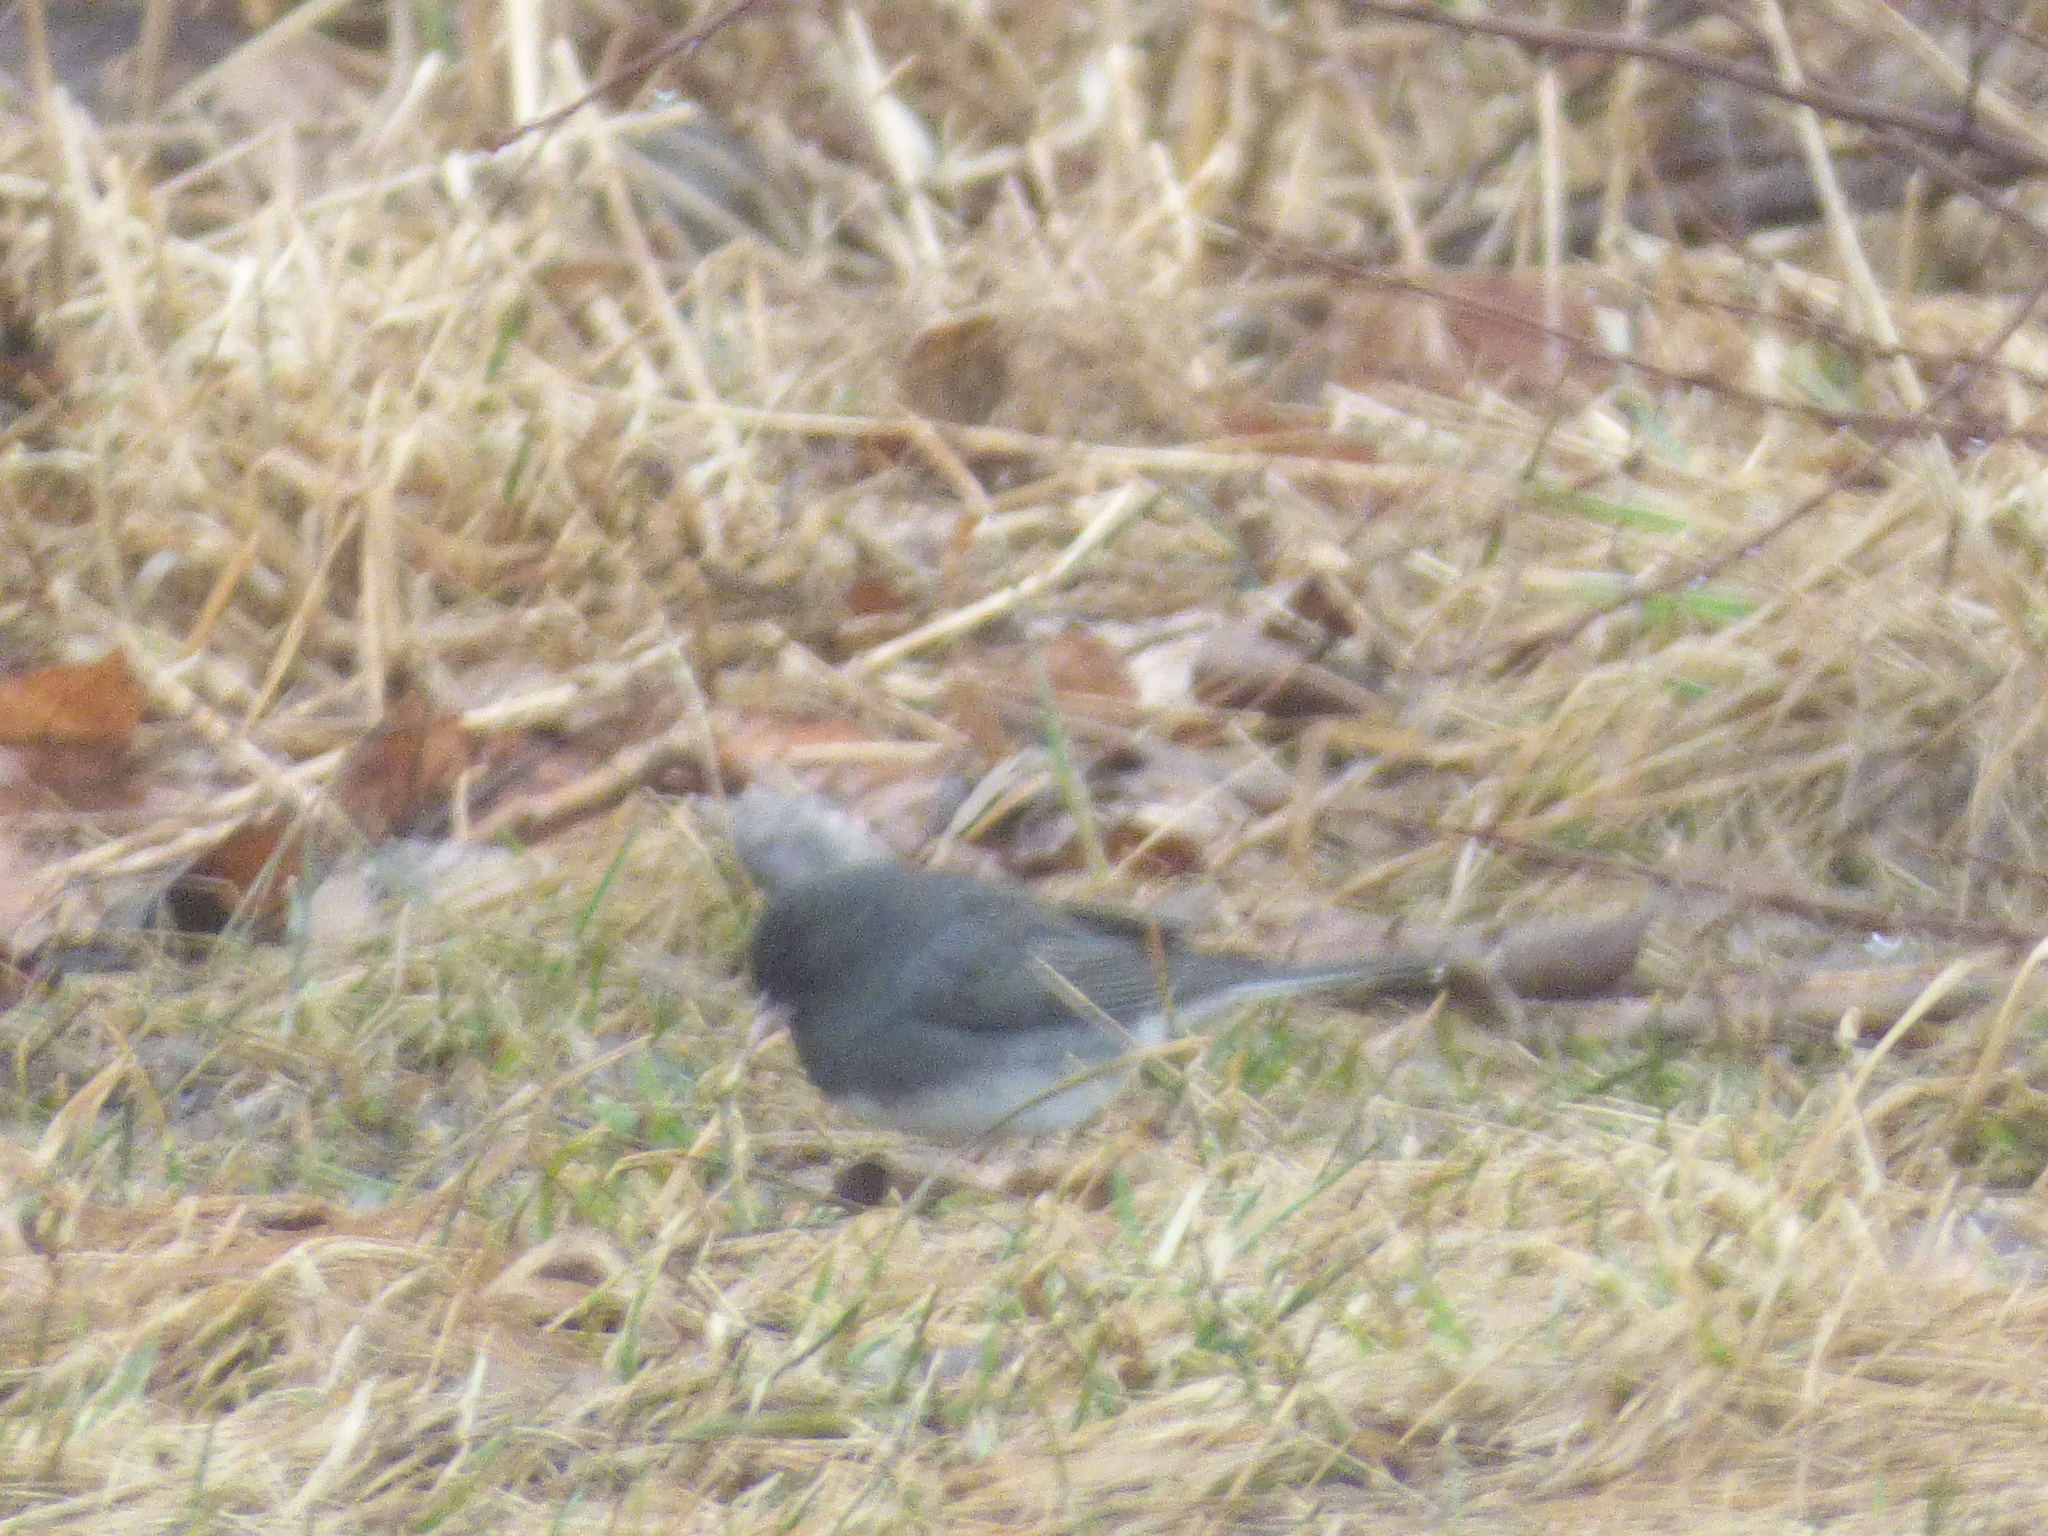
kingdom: Animalia
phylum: Chordata
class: Aves
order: Passeriformes
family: Passerellidae
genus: Junco
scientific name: Junco hyemalis
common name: Dark-eyed junco
